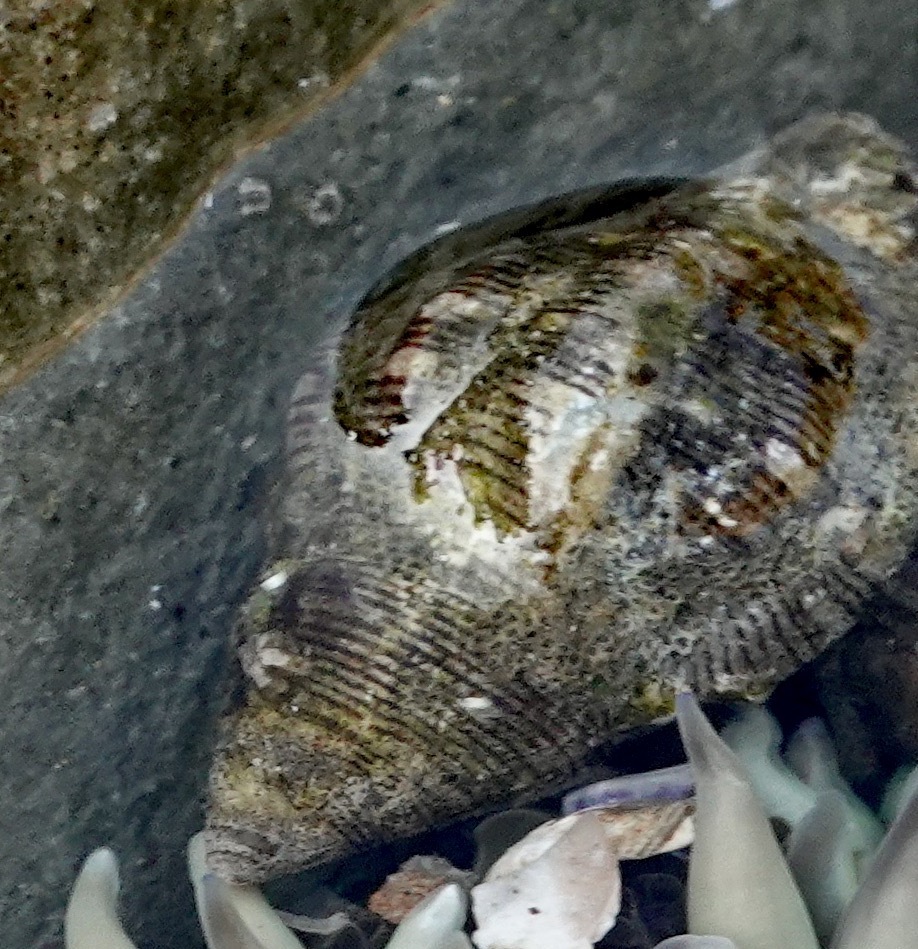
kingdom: Animalia
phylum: Mollusca
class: Gastropoda
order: Neogastropoda
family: Muricidae
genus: Roperia
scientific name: Roperia poulsoni
